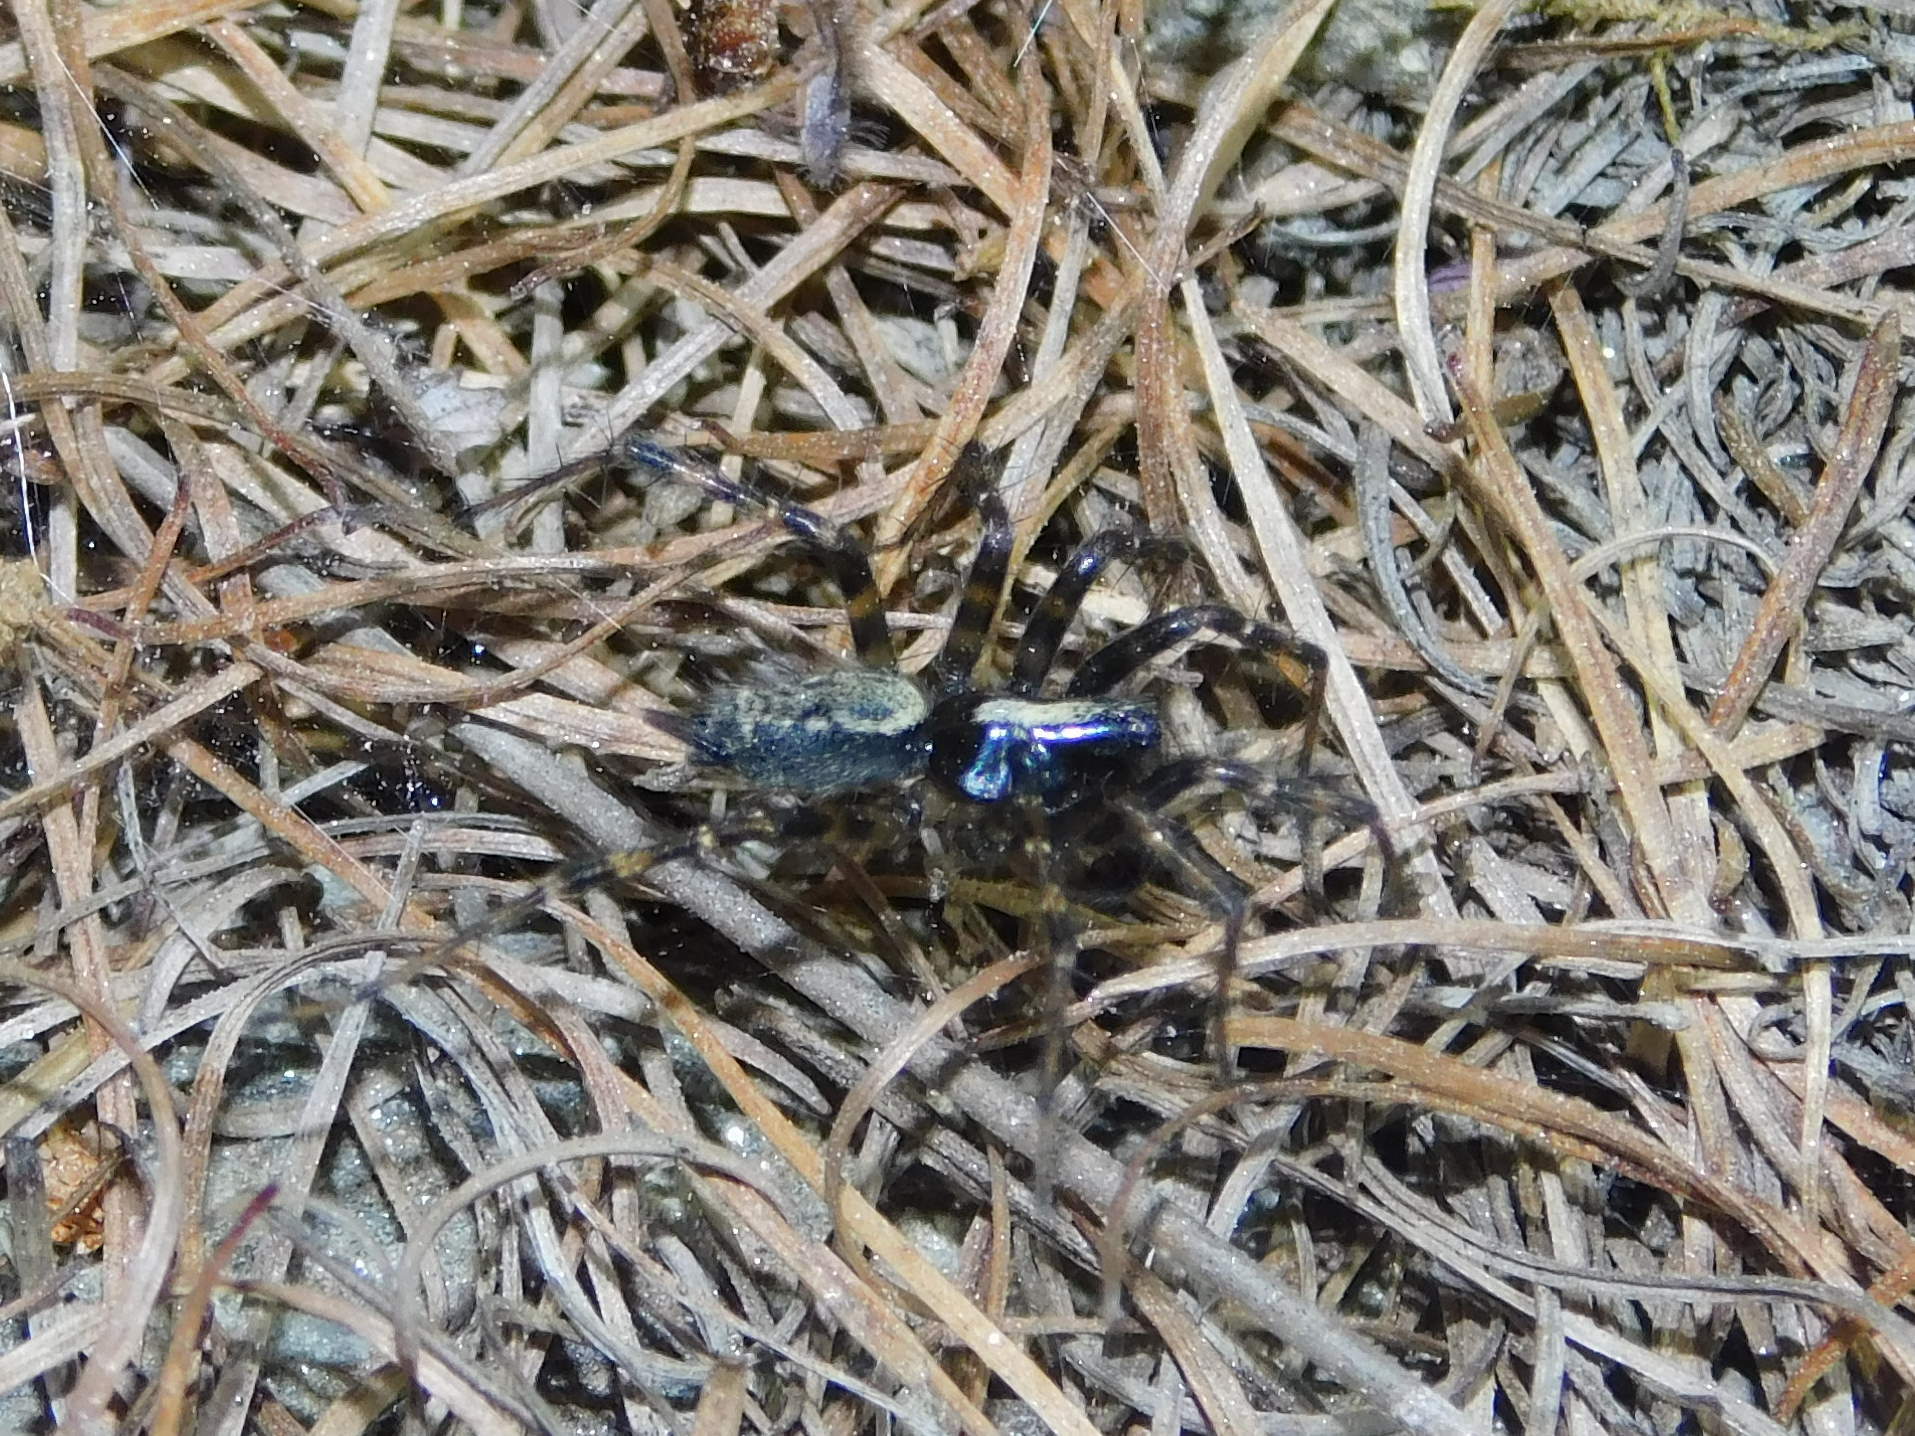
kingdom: Animalia
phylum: Arthropoda
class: Arachnida
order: Araneae
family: Agelenidae
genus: Textrix
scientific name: Textrix denticulata
